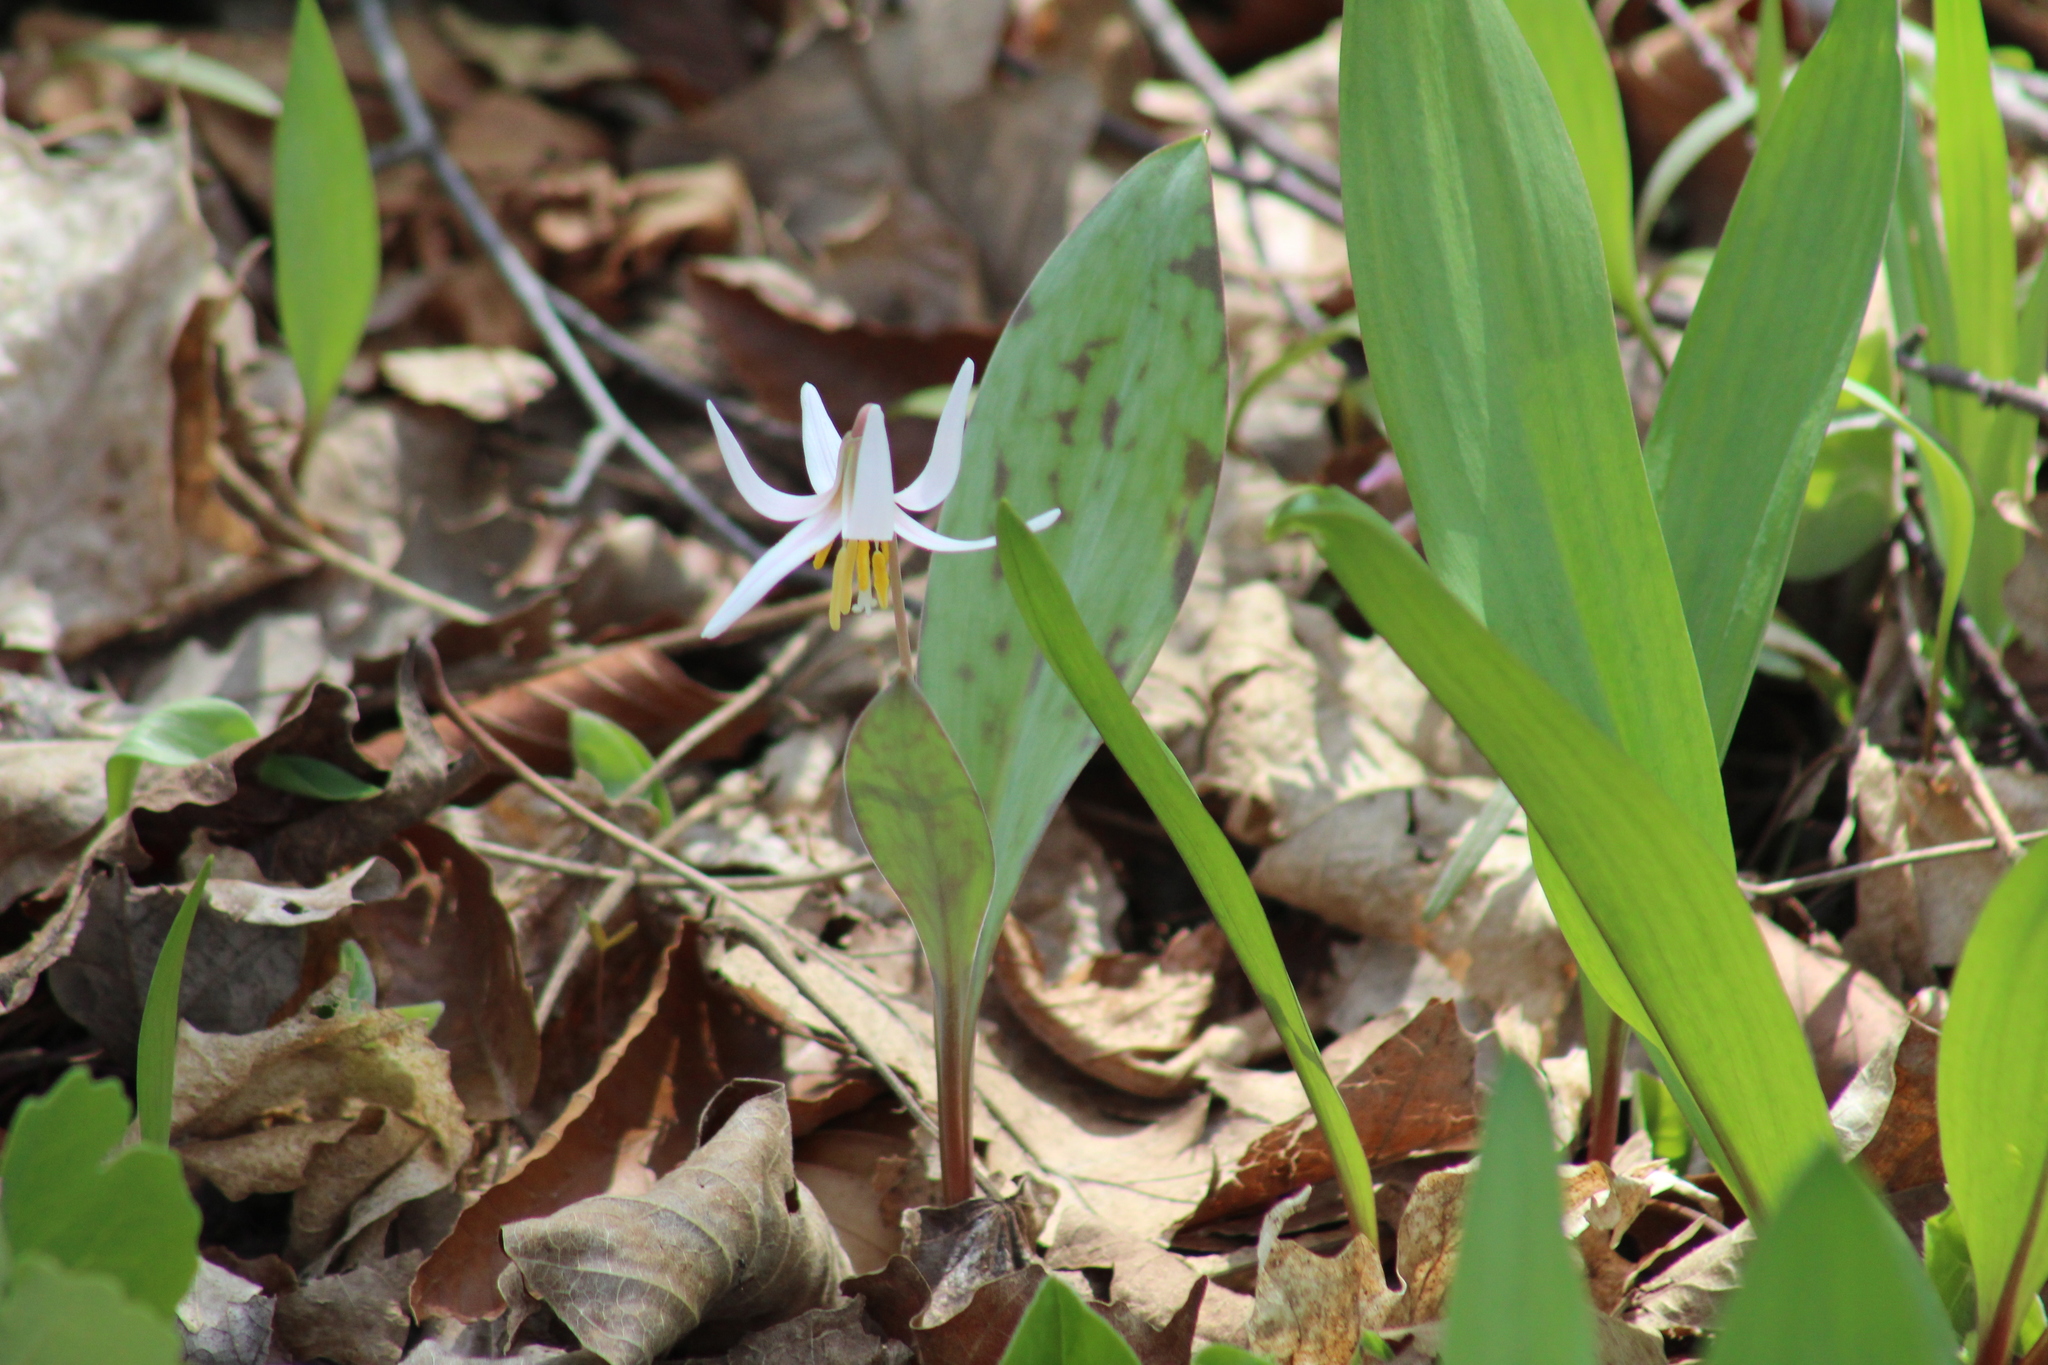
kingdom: Plantae
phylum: Tracheophyta
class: Liliopsida
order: Liliales
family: Liliaceae
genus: Erythronium
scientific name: Erythronium albidum
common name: White trout-lily
